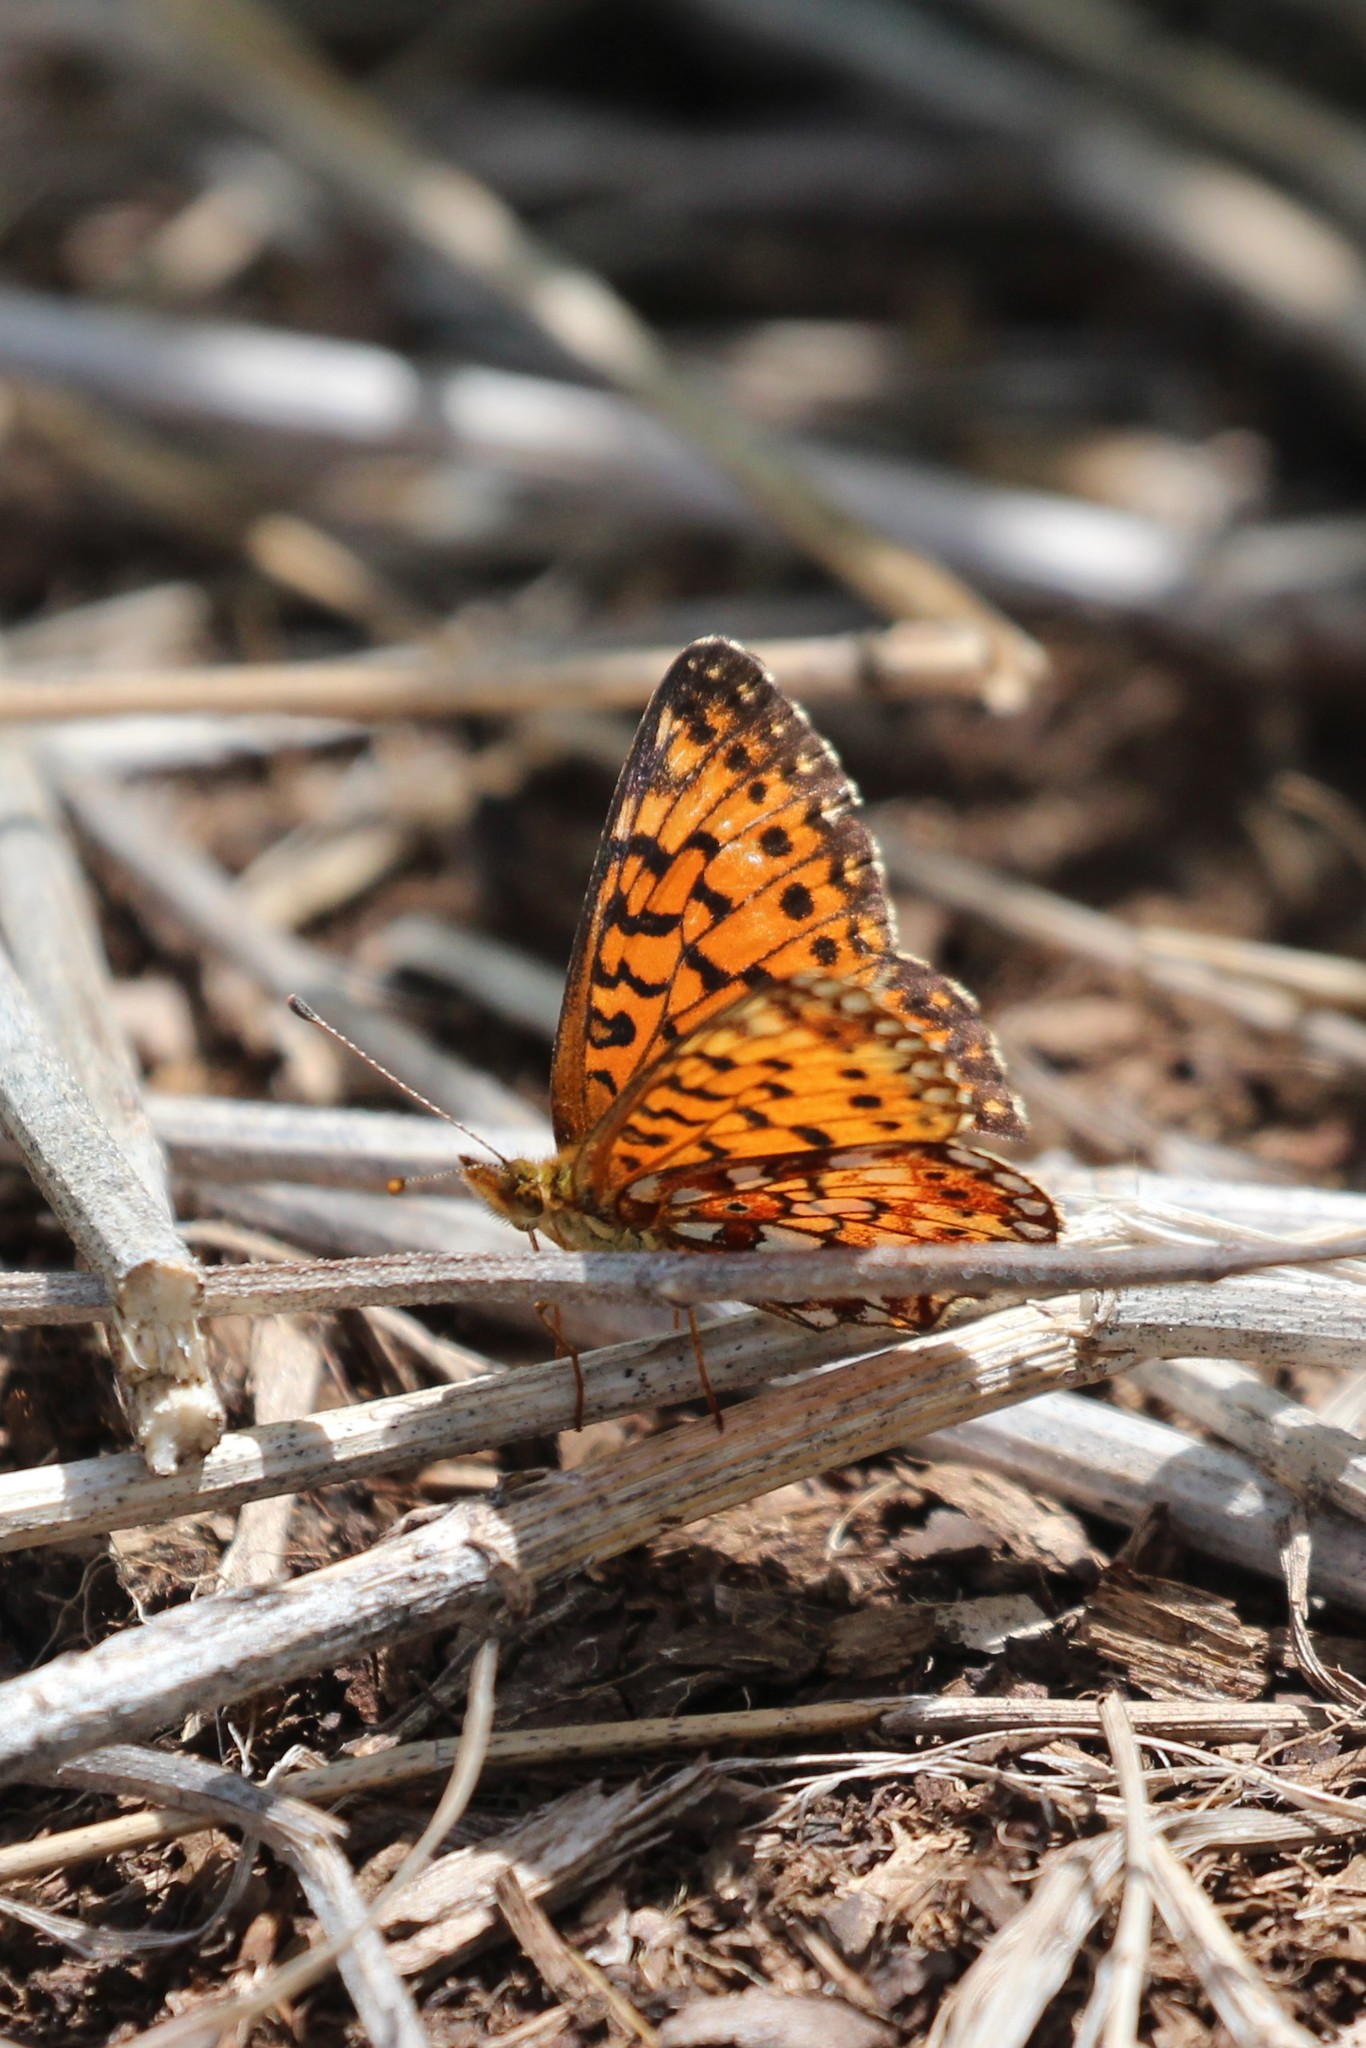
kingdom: Animalia
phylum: Arthropoda
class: Insecta
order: Lepidoptera
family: Nymphalidae
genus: Boloria
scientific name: Boloria
